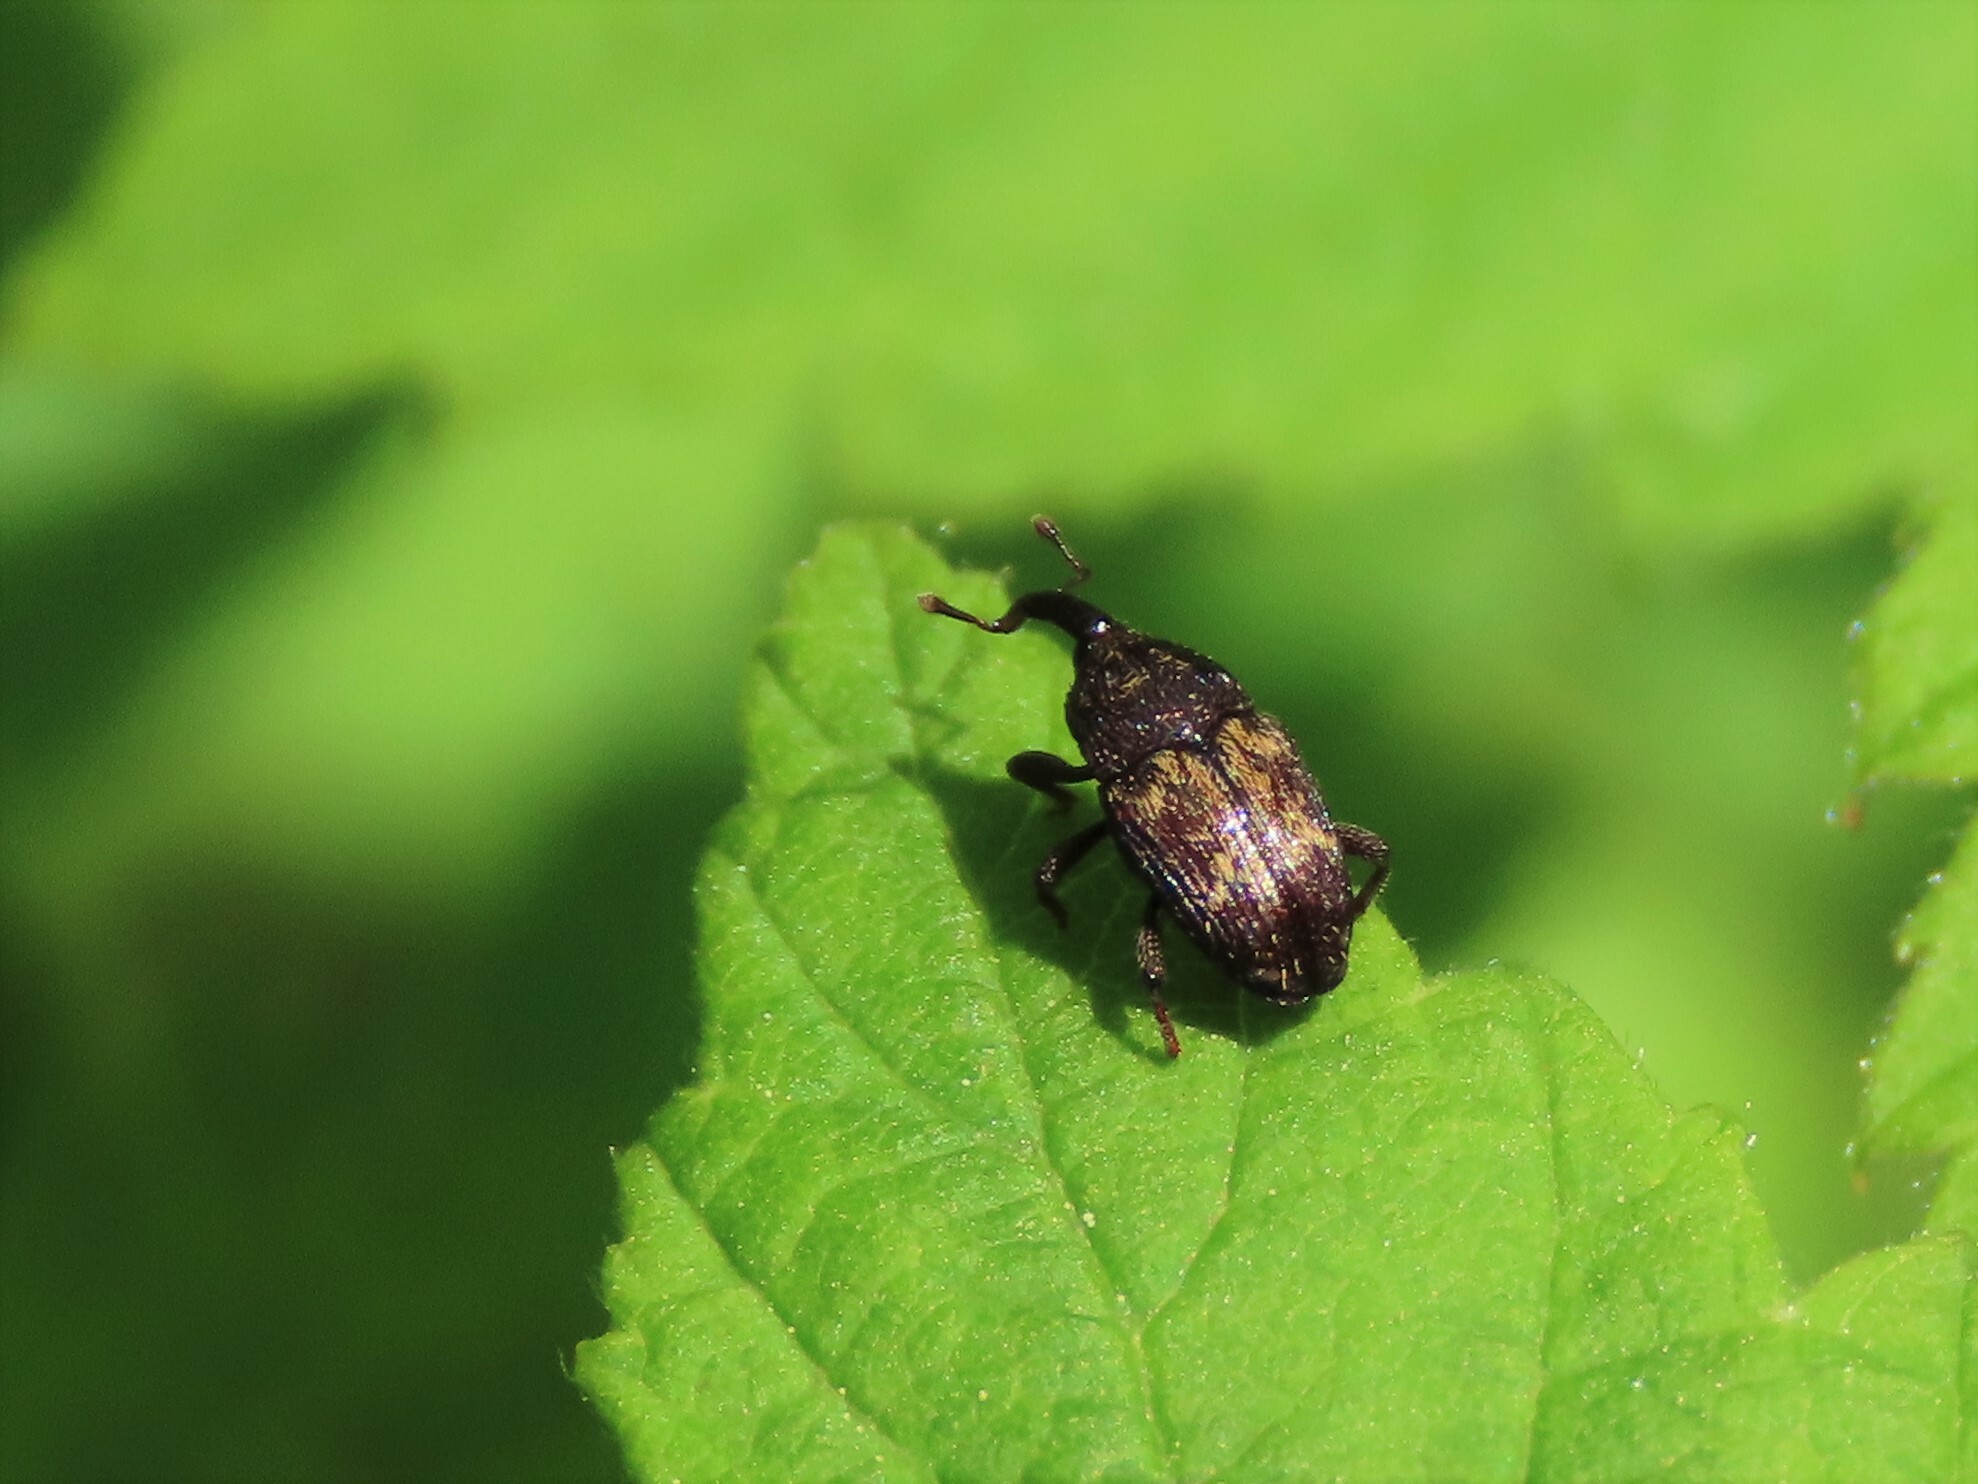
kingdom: Animalia
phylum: Arthropoda
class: Insecta
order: Coleoptera
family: Curculionidae
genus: Glyptobaris
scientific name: Glyptobaris lecontei
